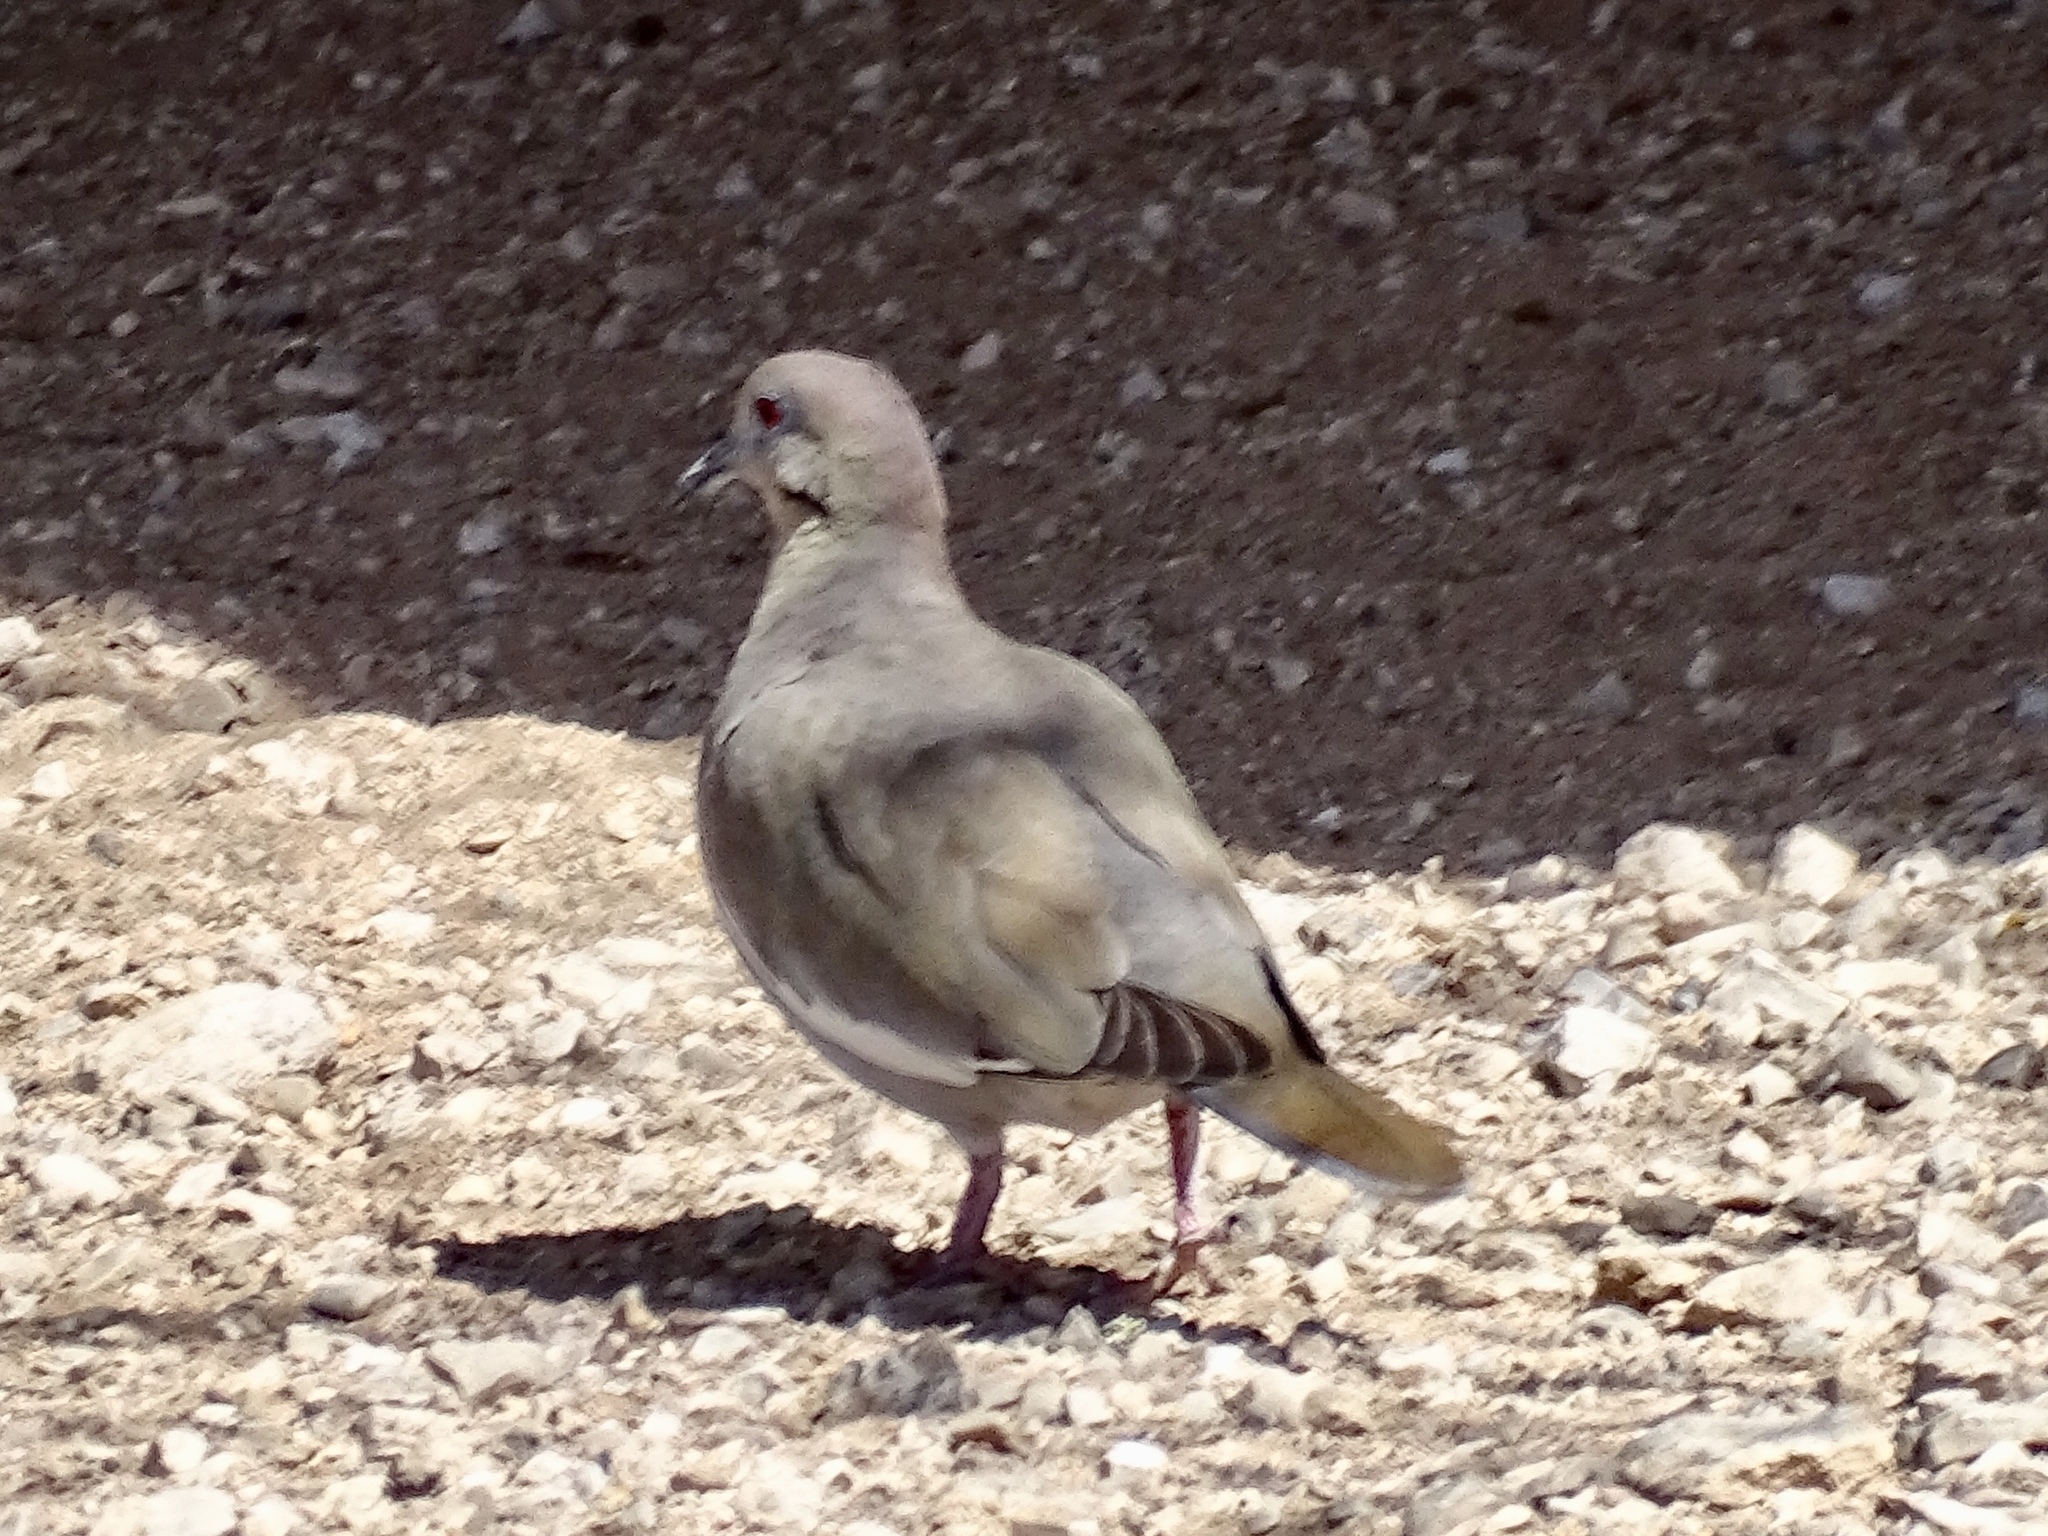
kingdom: Animalia
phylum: Chordata
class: Aves
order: Columbiformes
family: Columbidae
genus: Zenaida
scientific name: Zenaida asiatica
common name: White-winged dove
